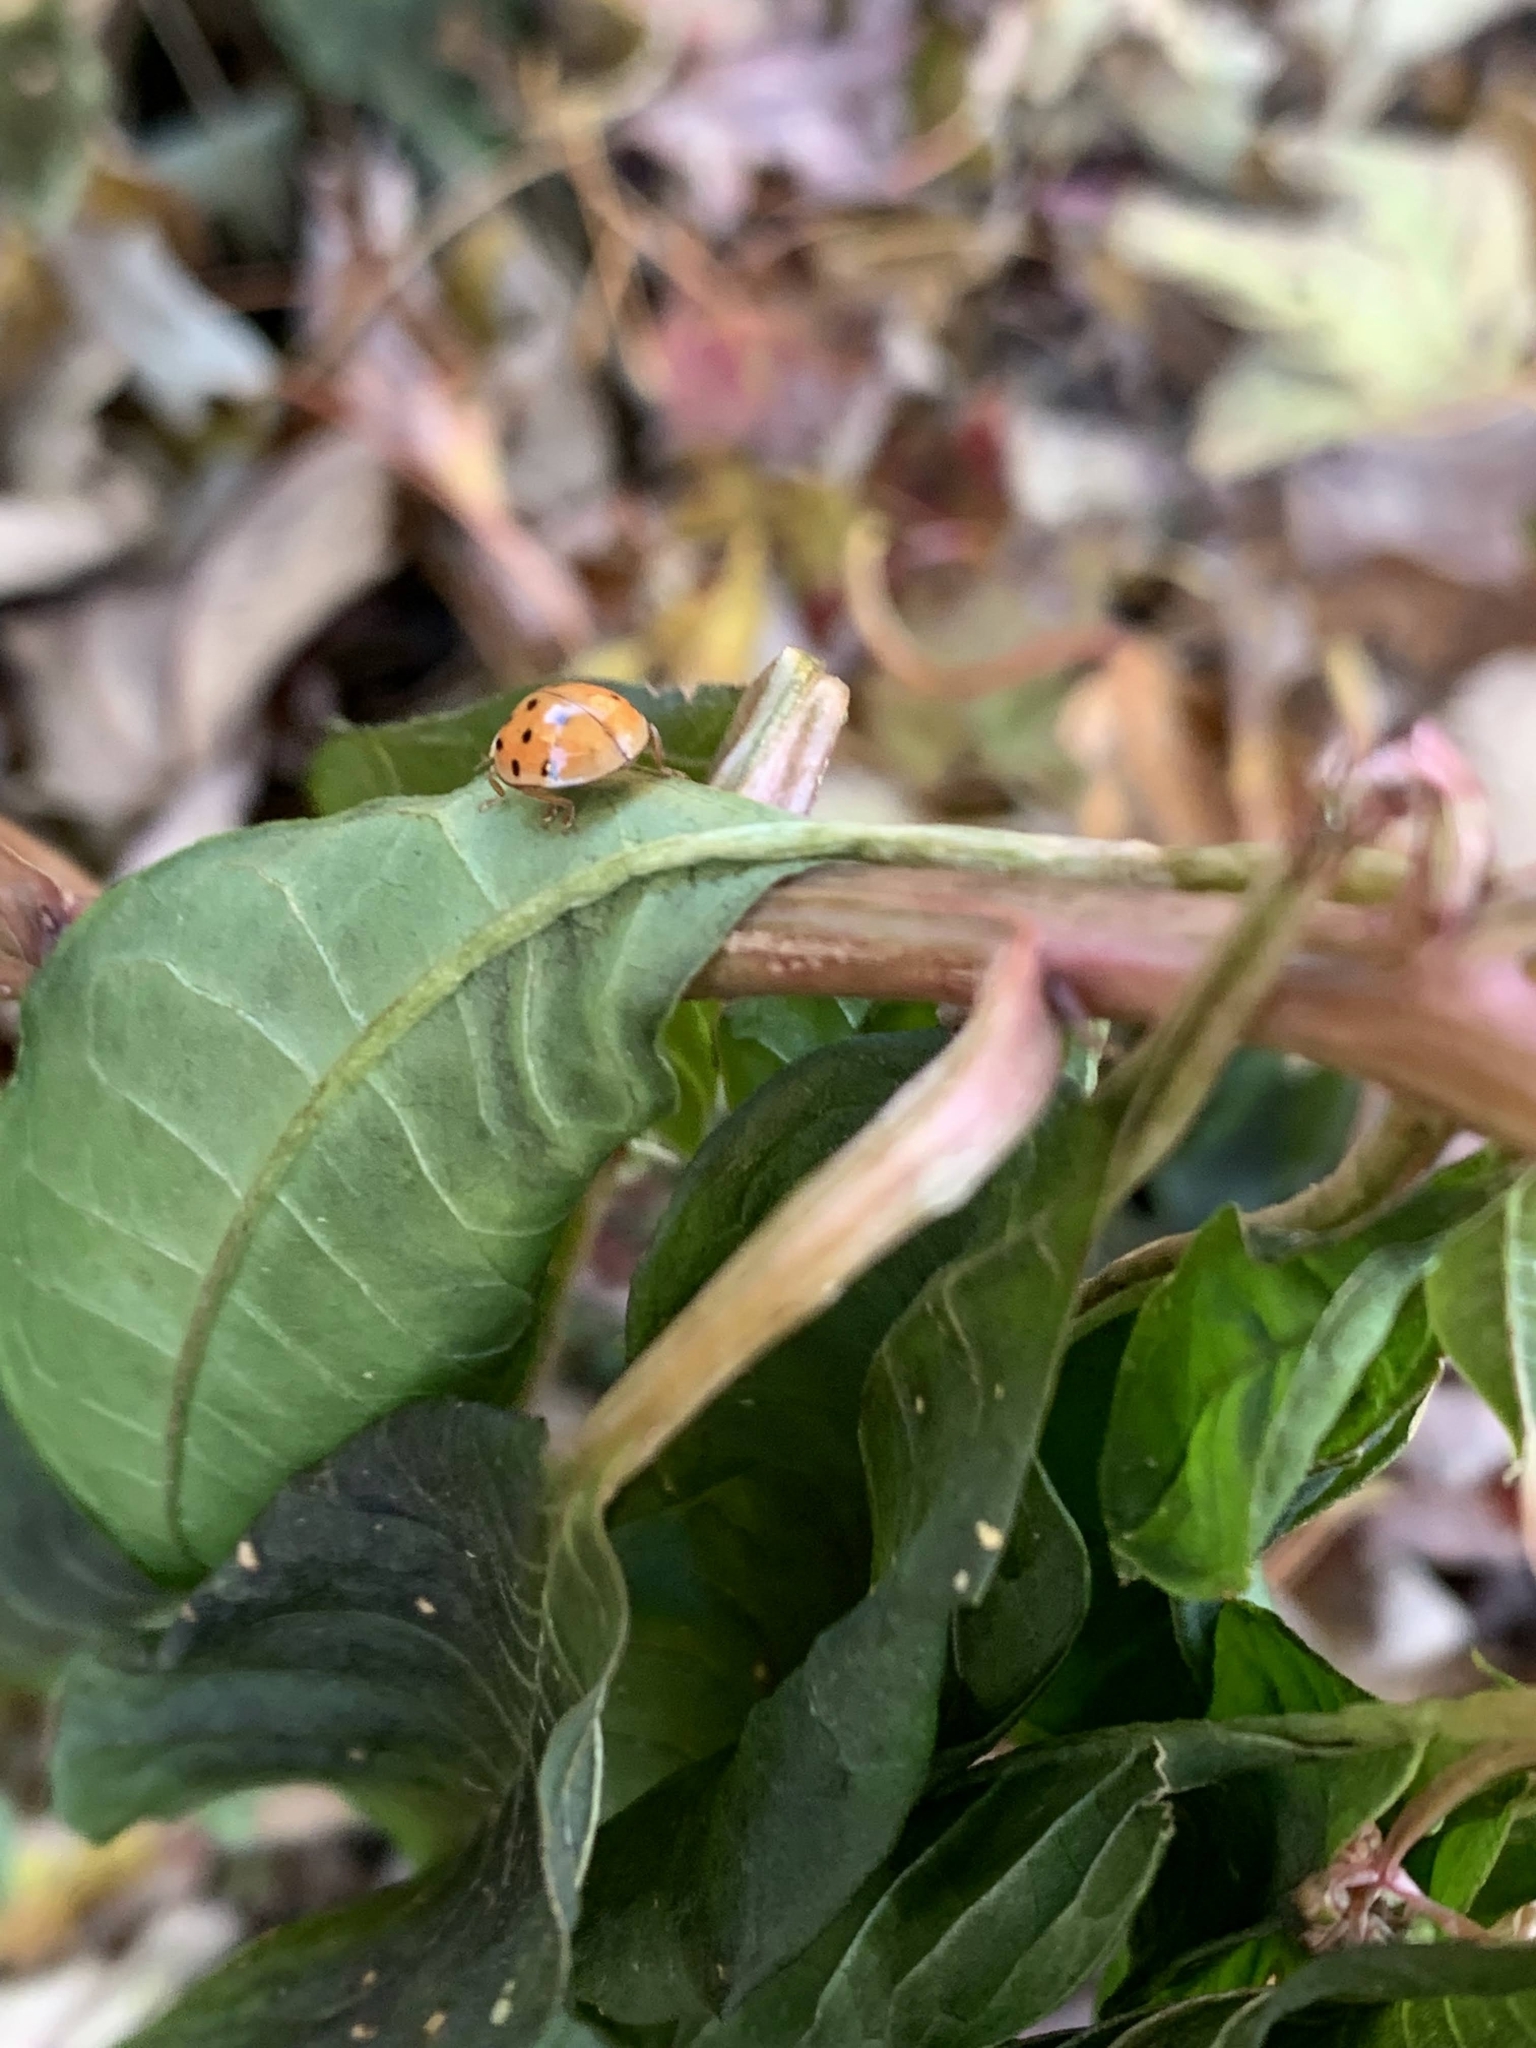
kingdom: Animalia
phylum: Arthropoda
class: Insecta
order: Coleoptera
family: Coccinellidae
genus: Harmonia
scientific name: Harmonia axyridis
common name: Harlequin ladybird
